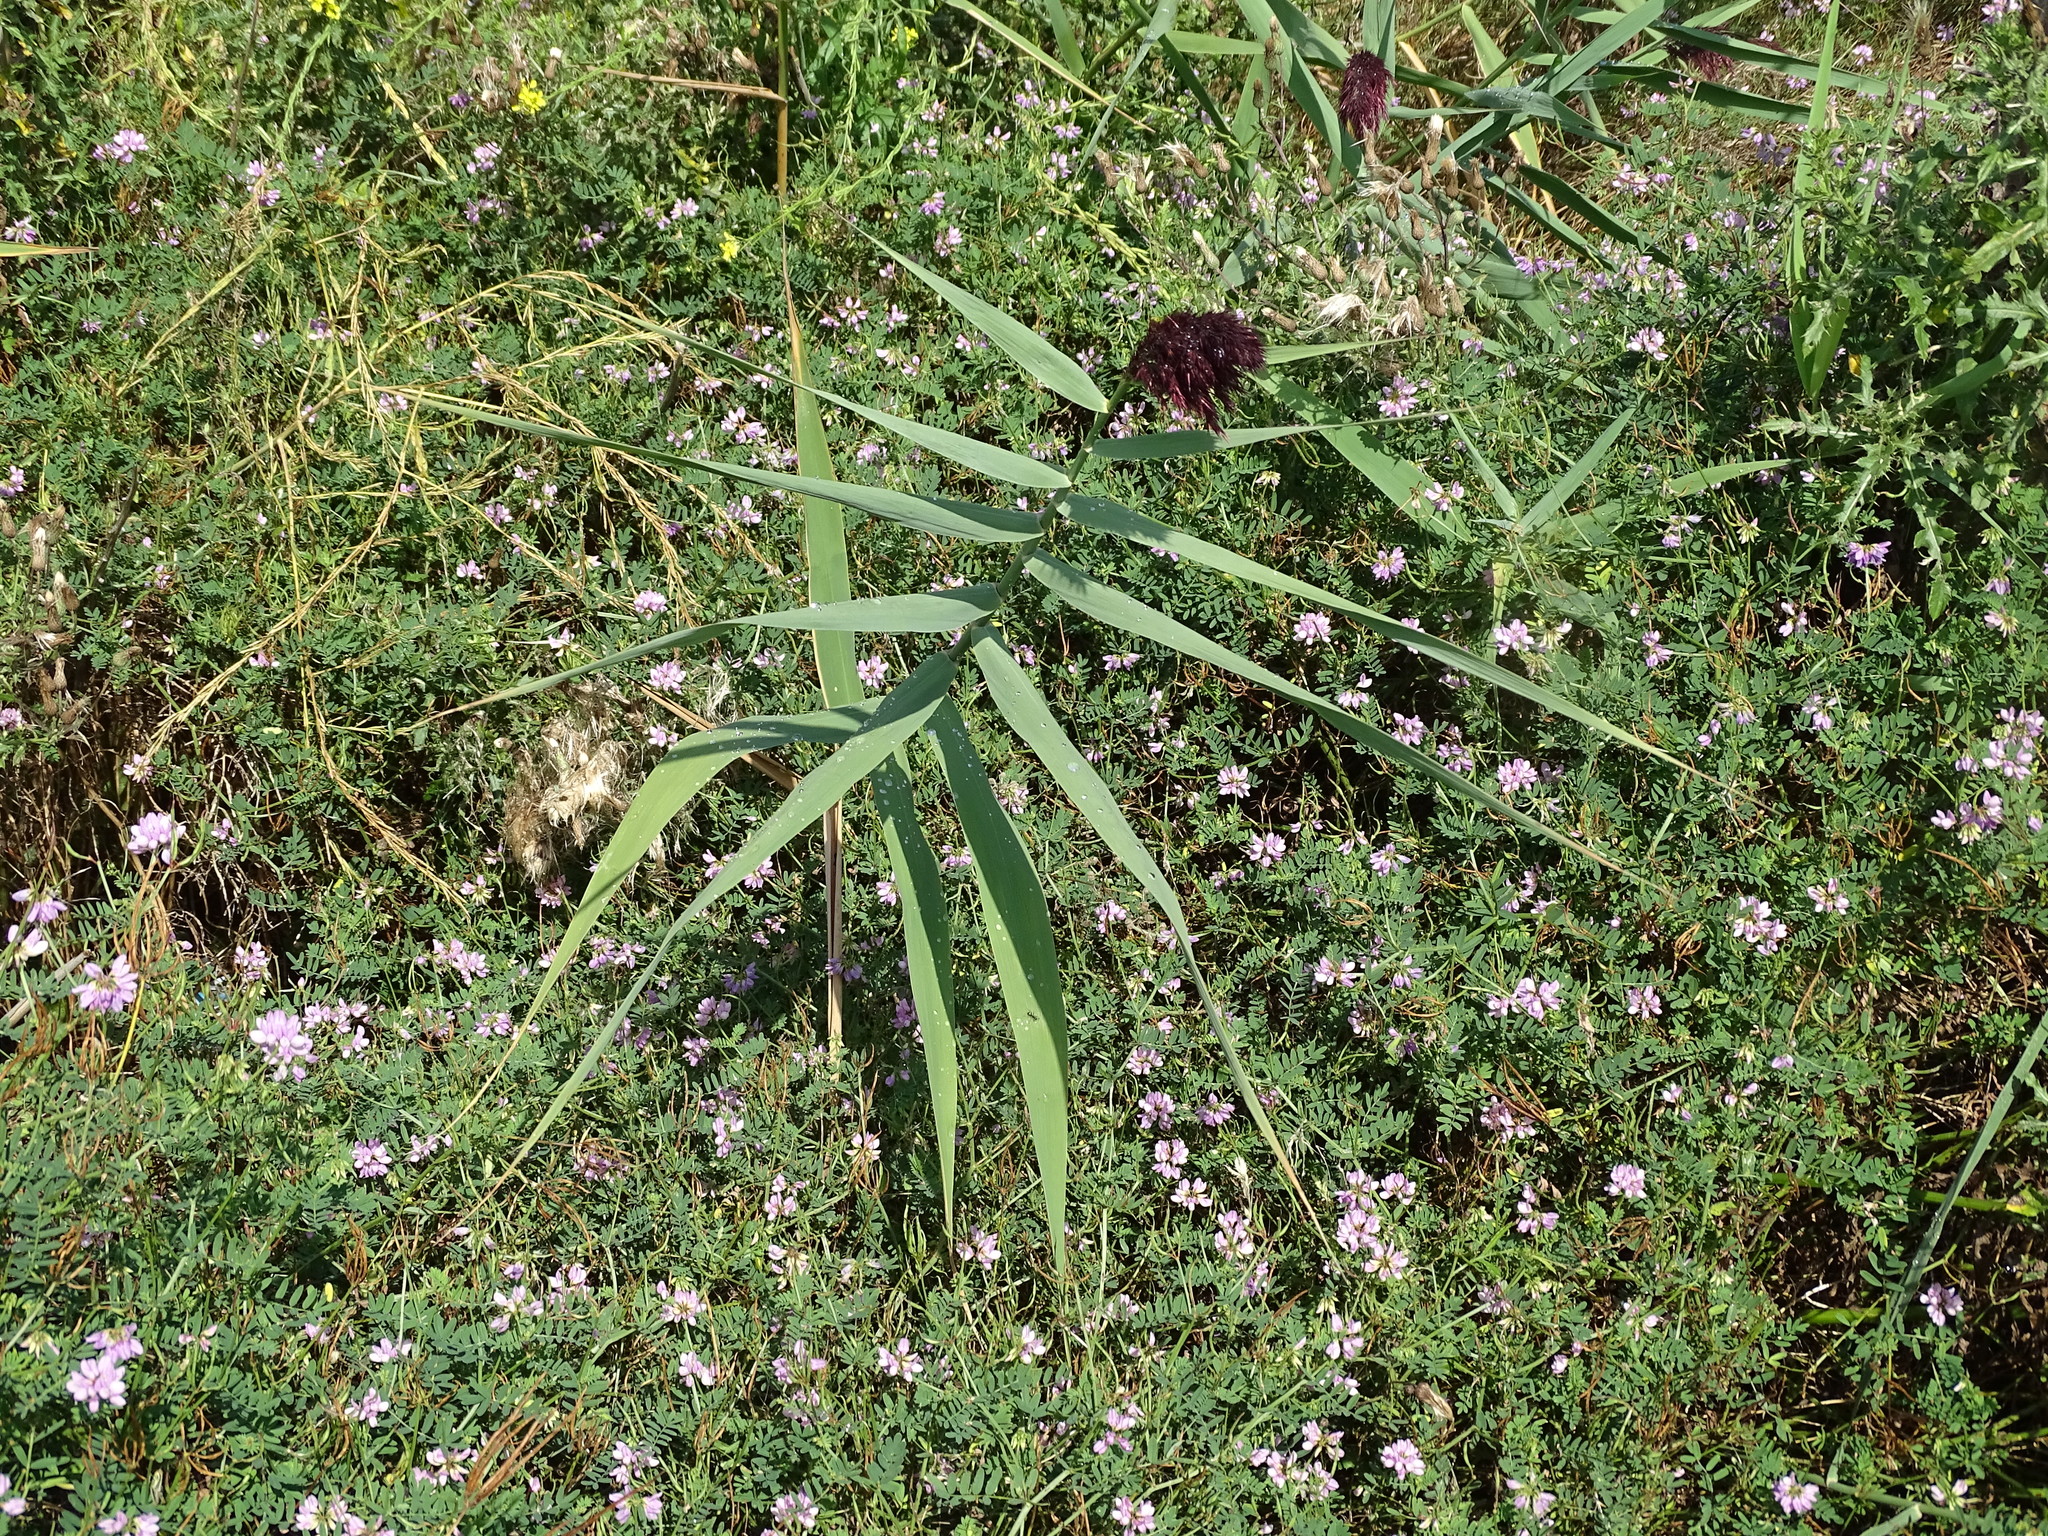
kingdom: Plantae
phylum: Tracheophyta
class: Liliopsida
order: Poales
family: Poaceae
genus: Phragmites
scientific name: Phragmites australis
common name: Common reed
